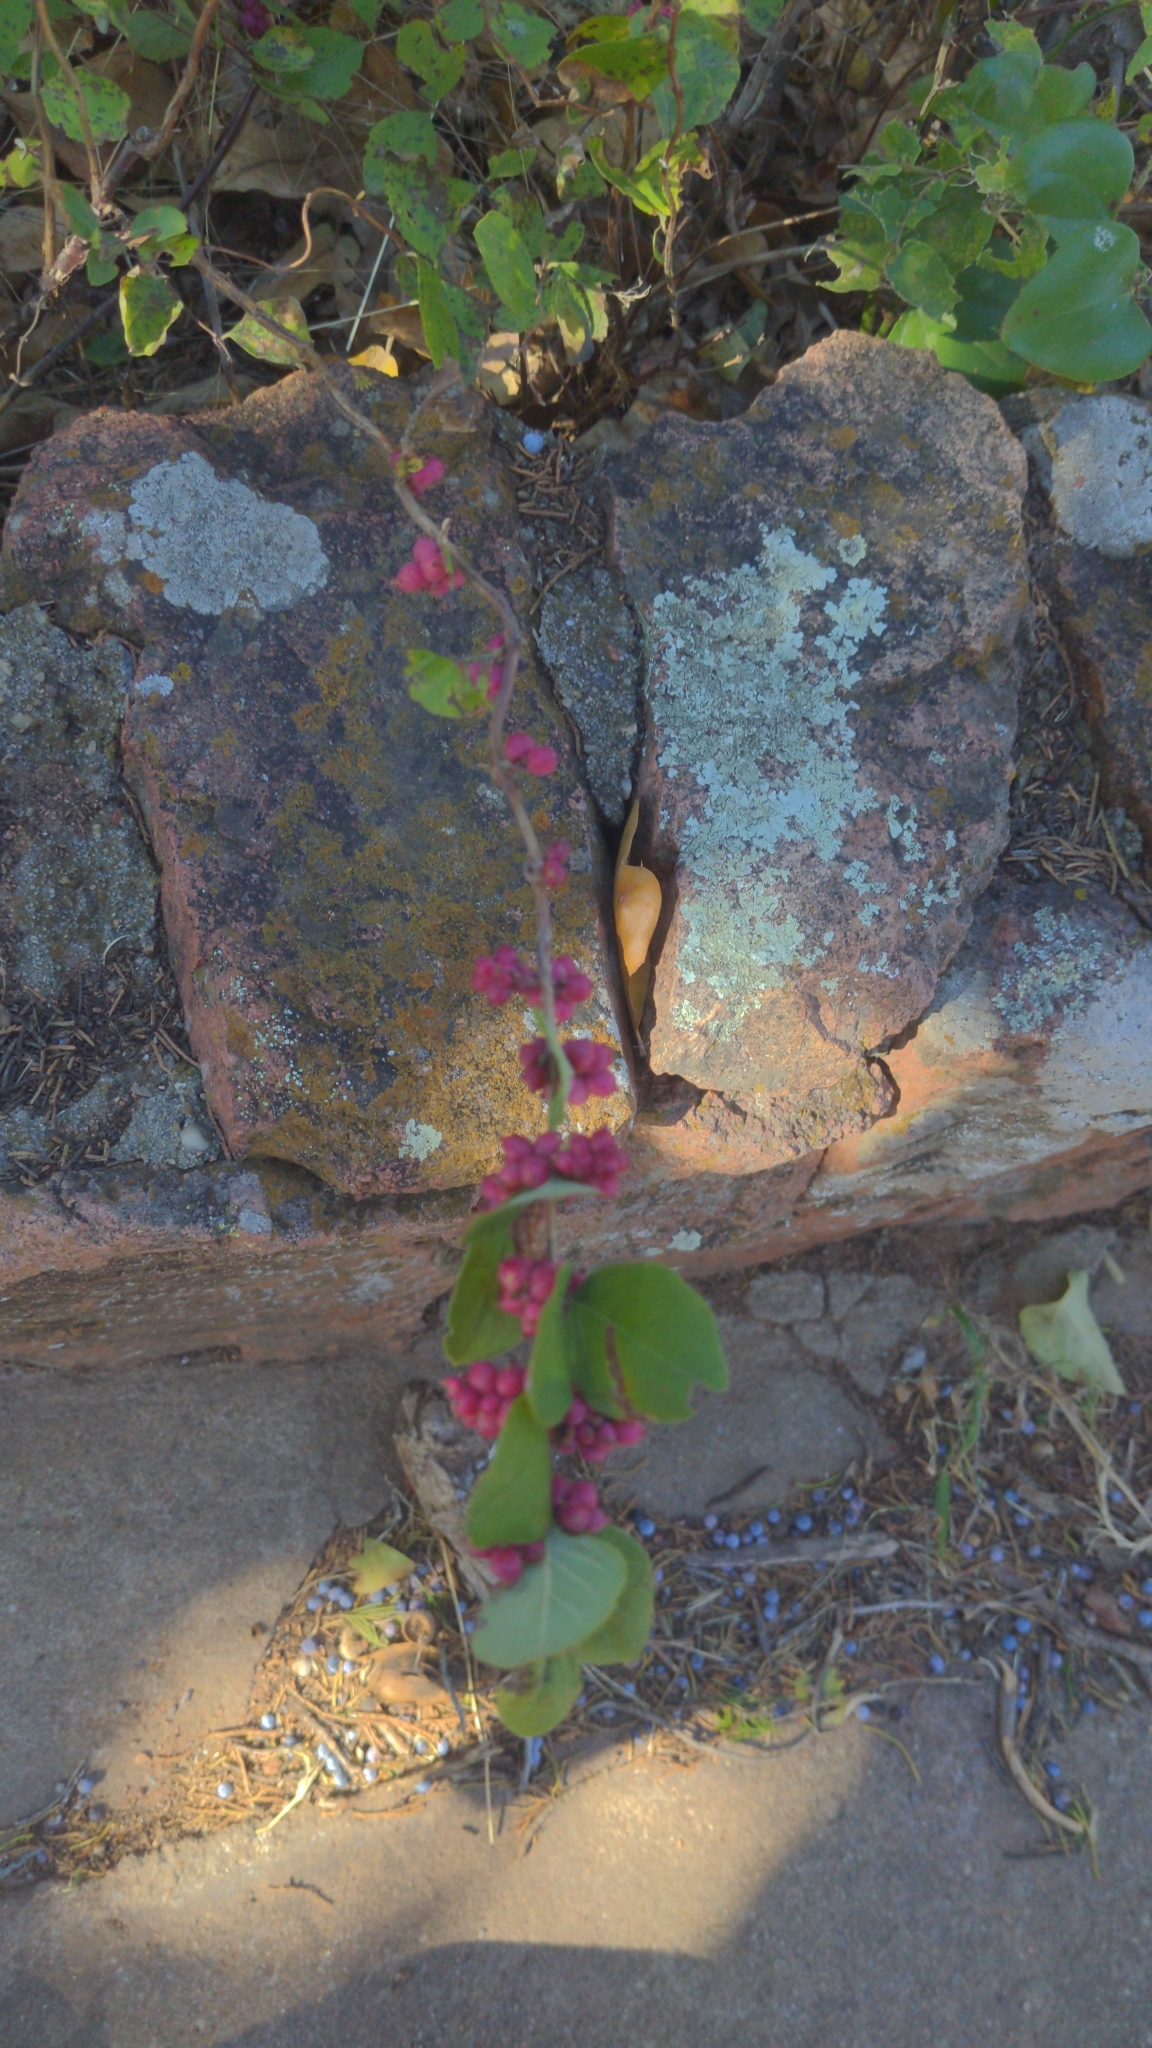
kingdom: Plantae
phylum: Tracheophyta
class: Magnoliopsida
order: Dipsacales
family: Caprifoliaceae
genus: Symphoricarpos
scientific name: Symphoricarpos orbiculatus
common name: Coralberry
